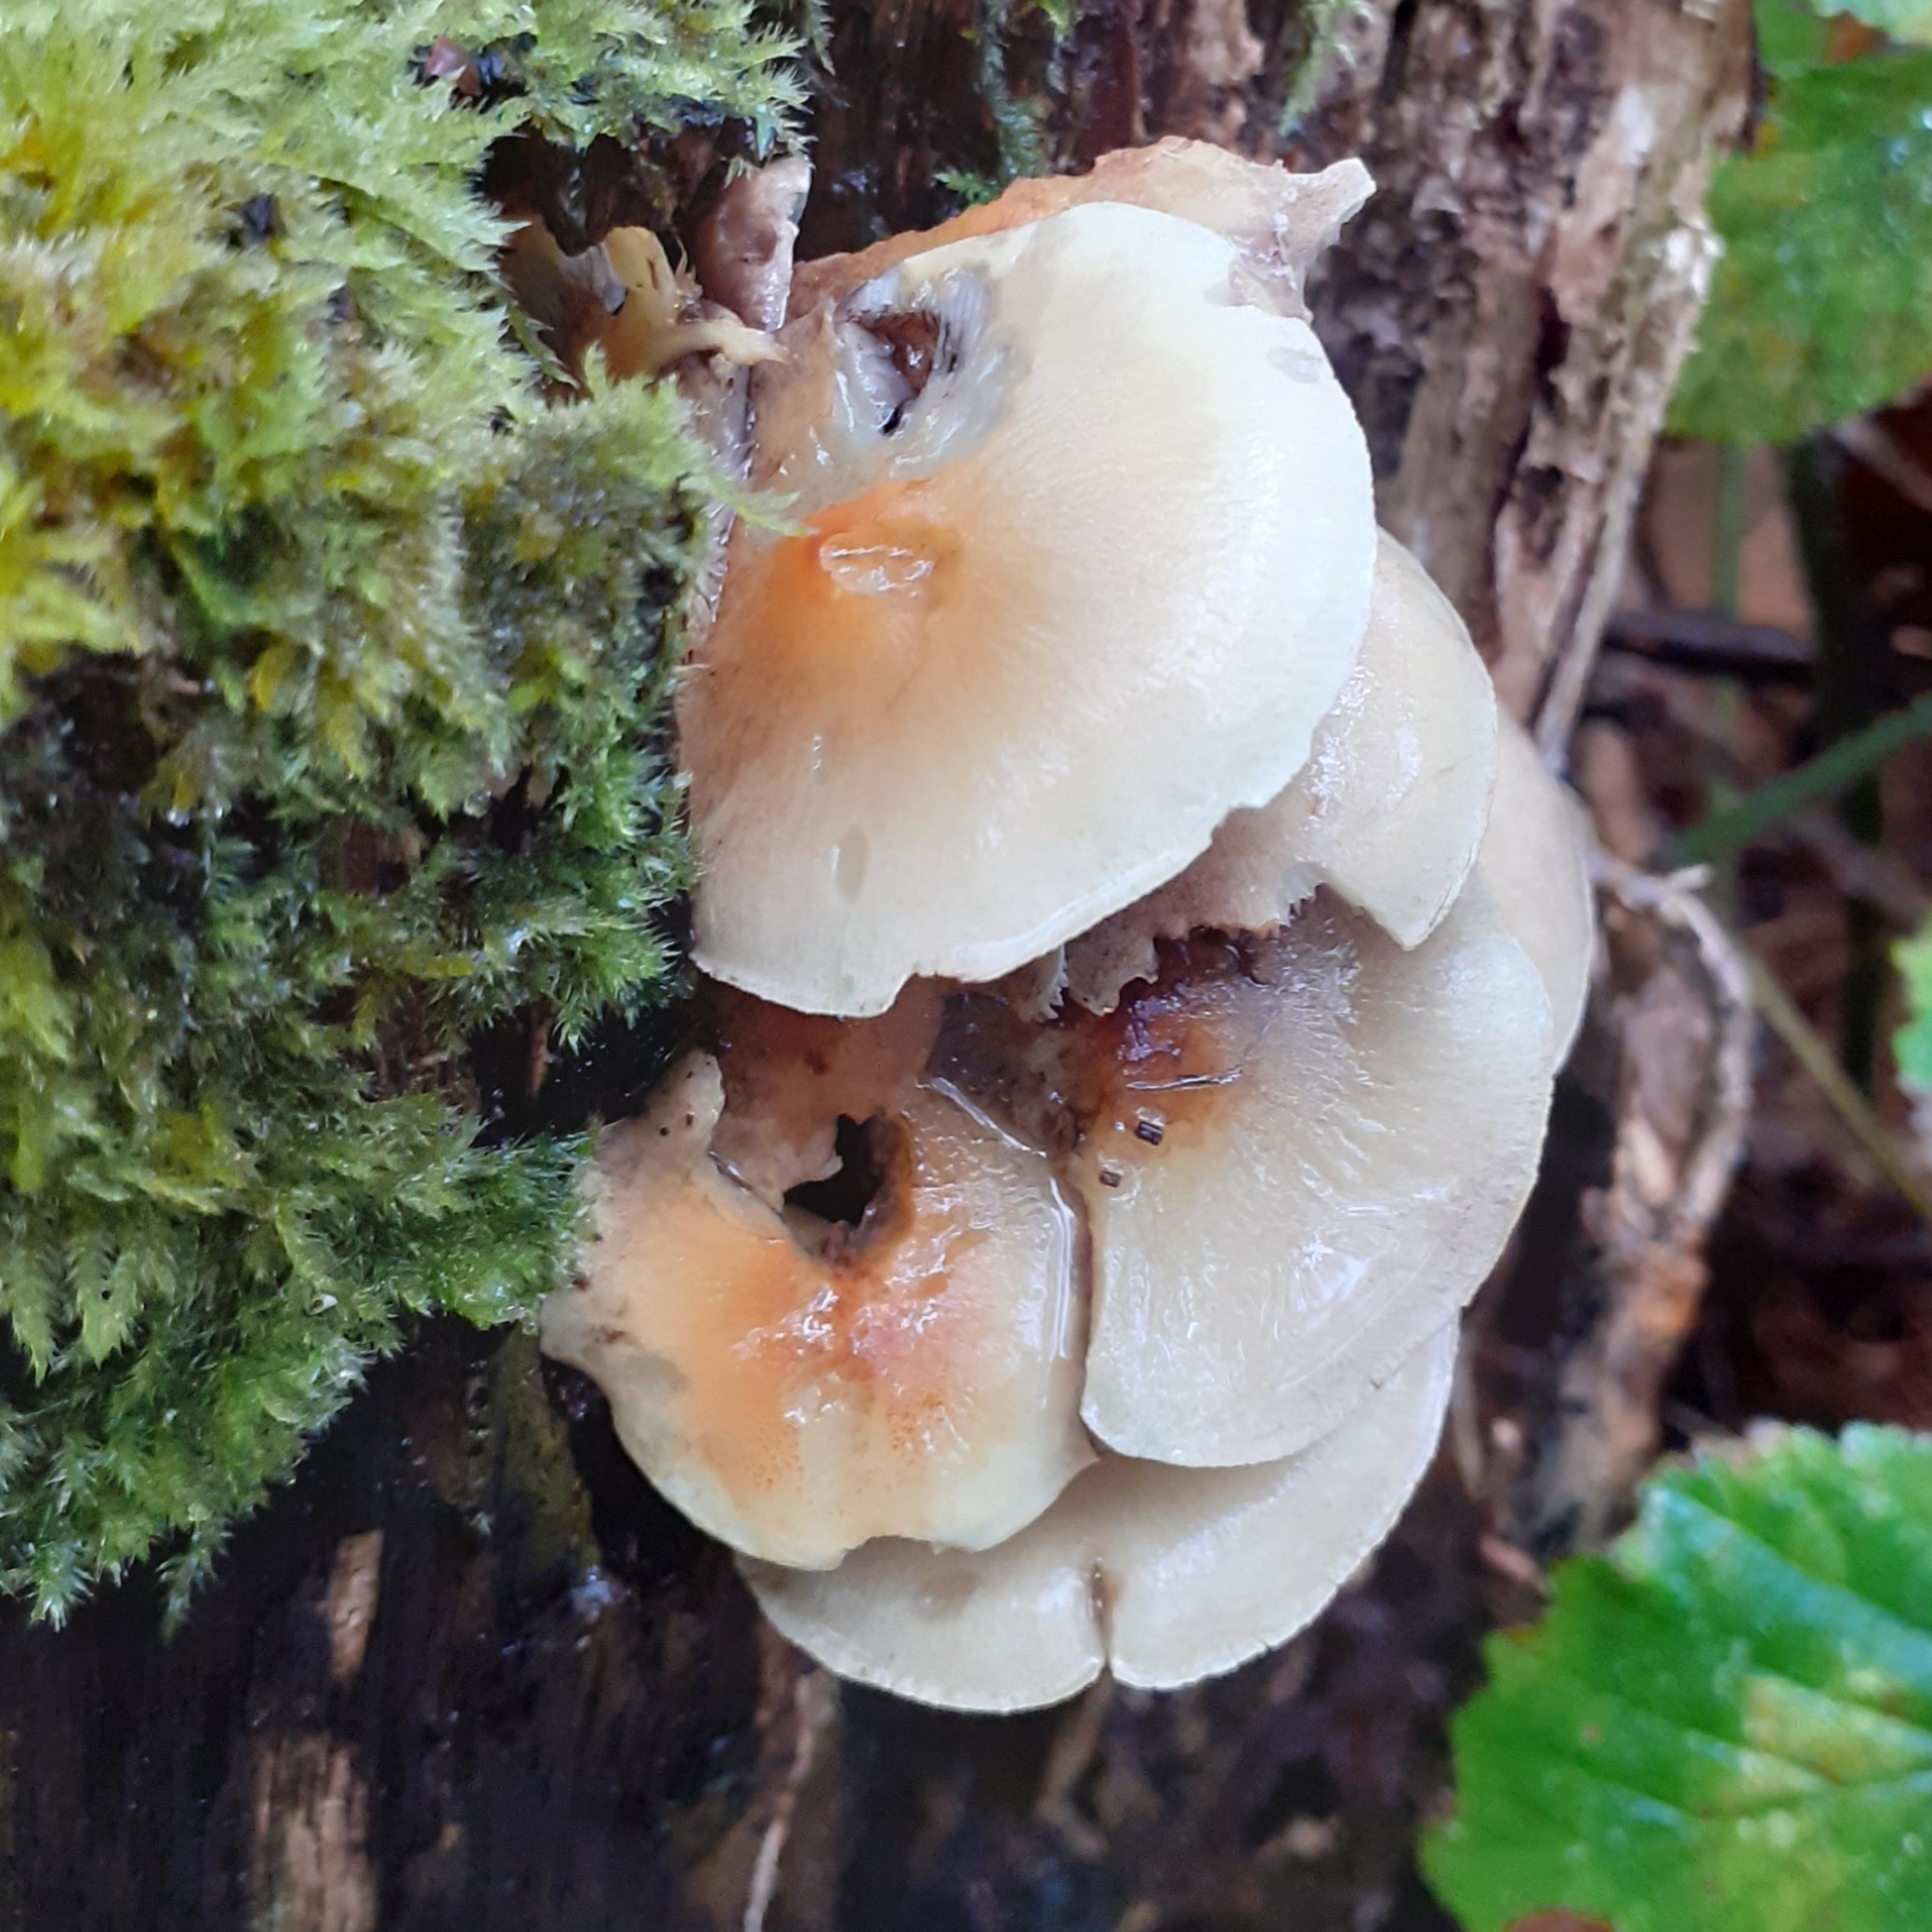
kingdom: Fungi
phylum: Basidiomycota
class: Agaricomycetes
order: Agaricales
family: Strophariaceae
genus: Hypholoma
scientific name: Hypholoma fasciculare
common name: Sulphur tuft
